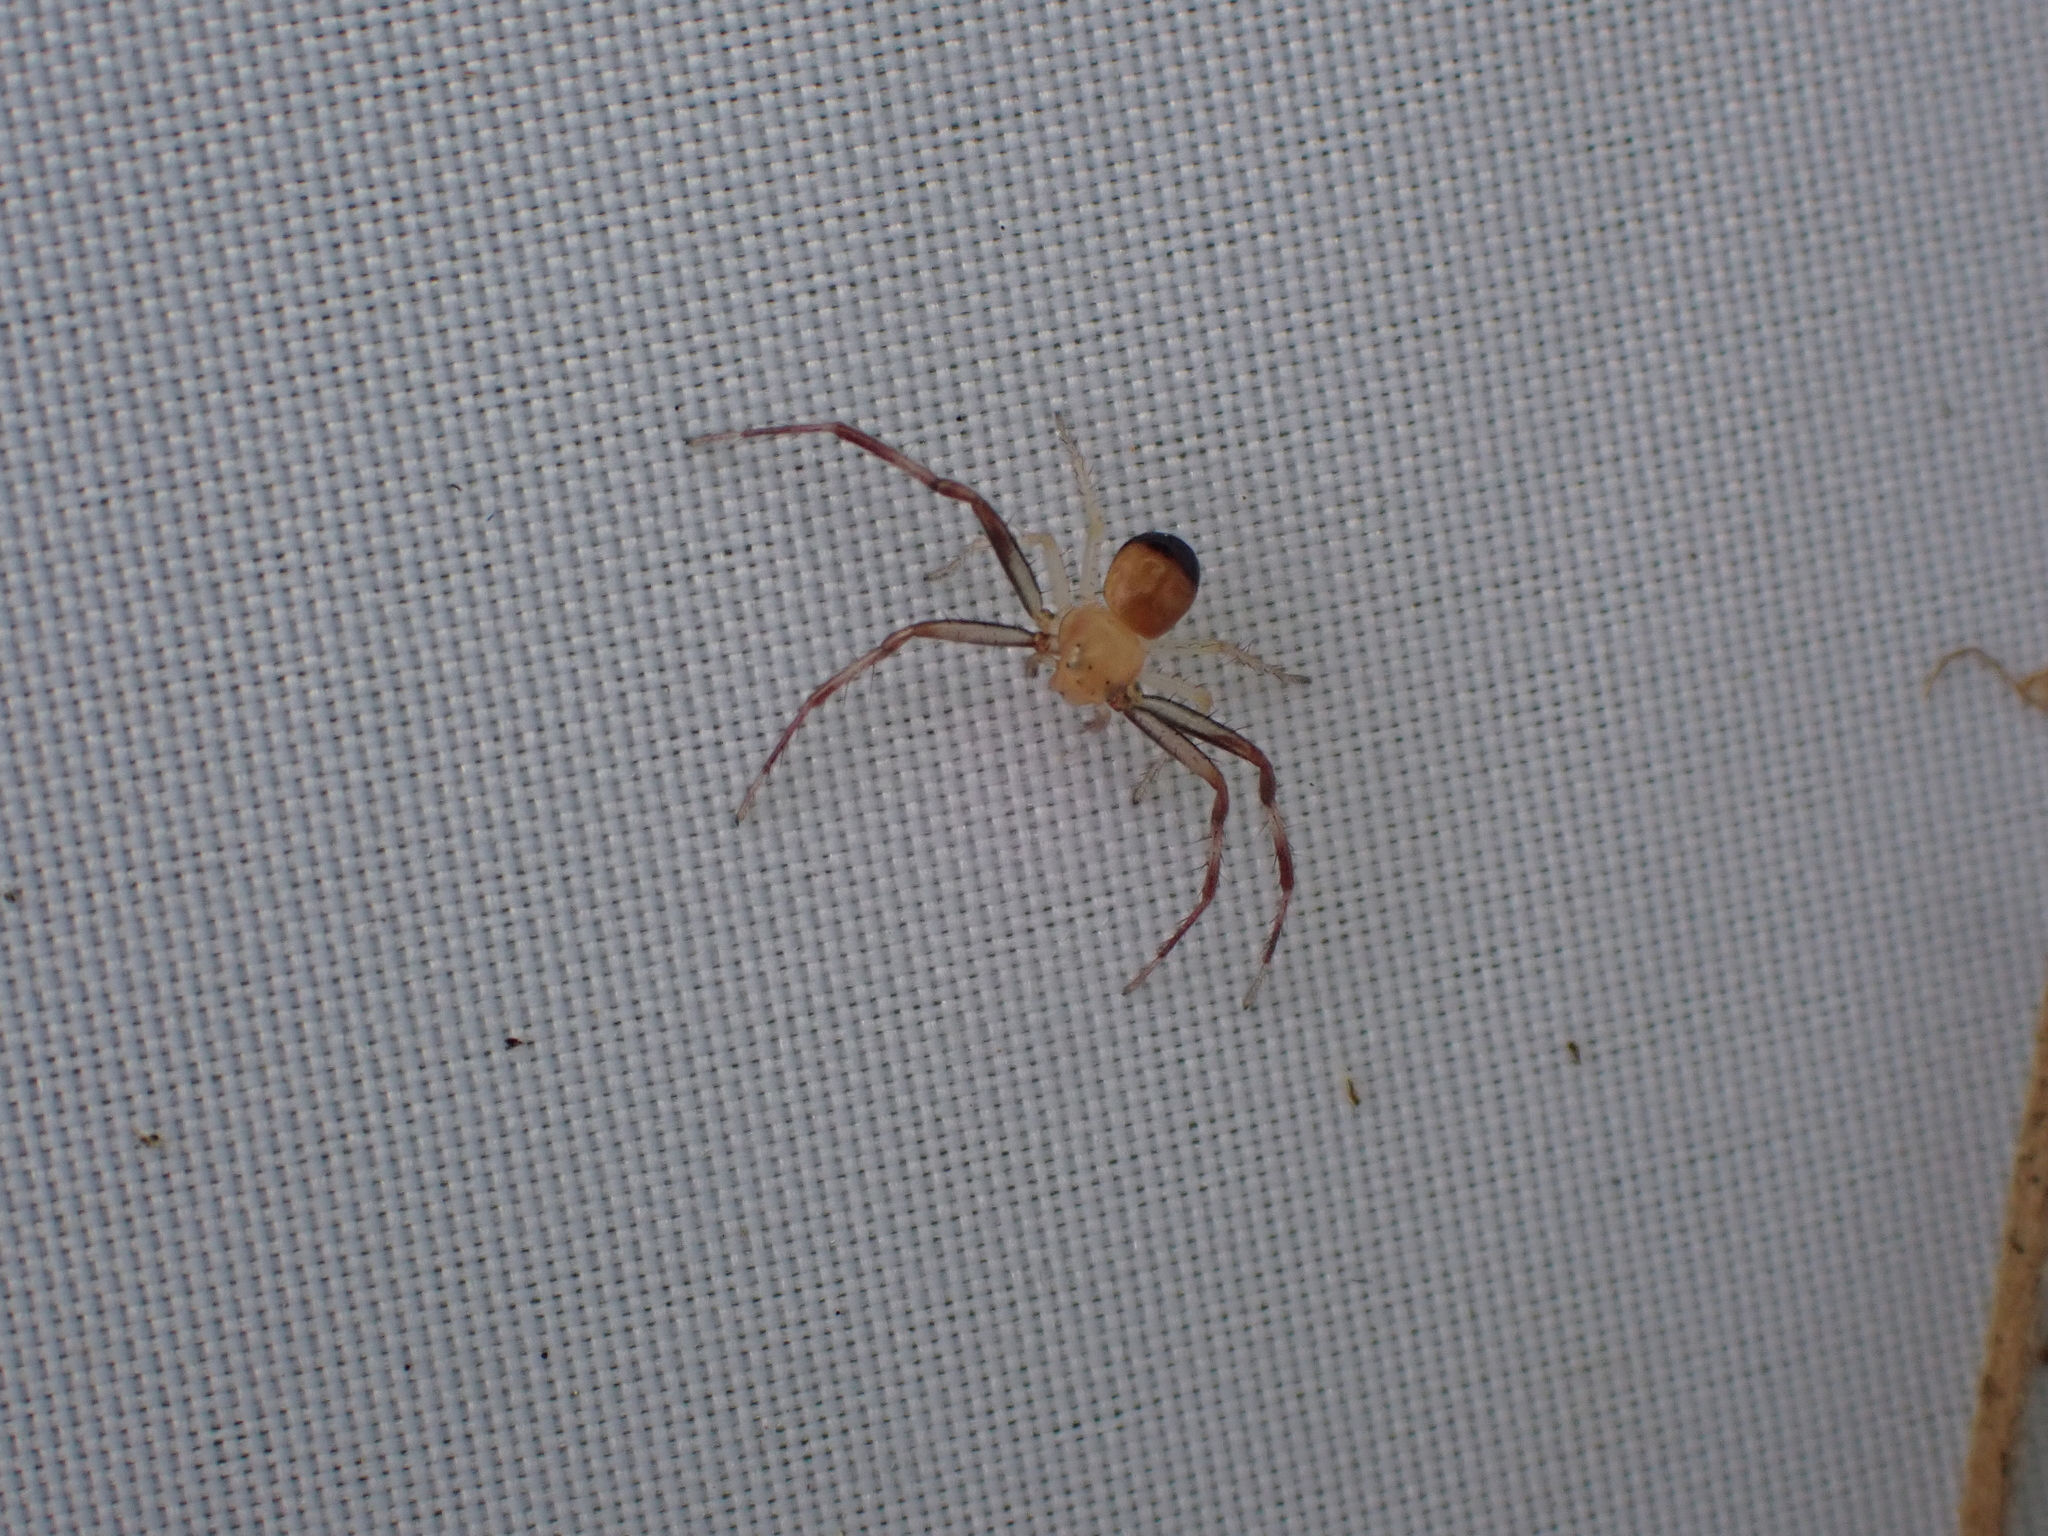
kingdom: Animalia
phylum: Arthropoda
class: Arachnida
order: Araneae
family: Thomisidae
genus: Synema
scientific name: Synema parvulum
